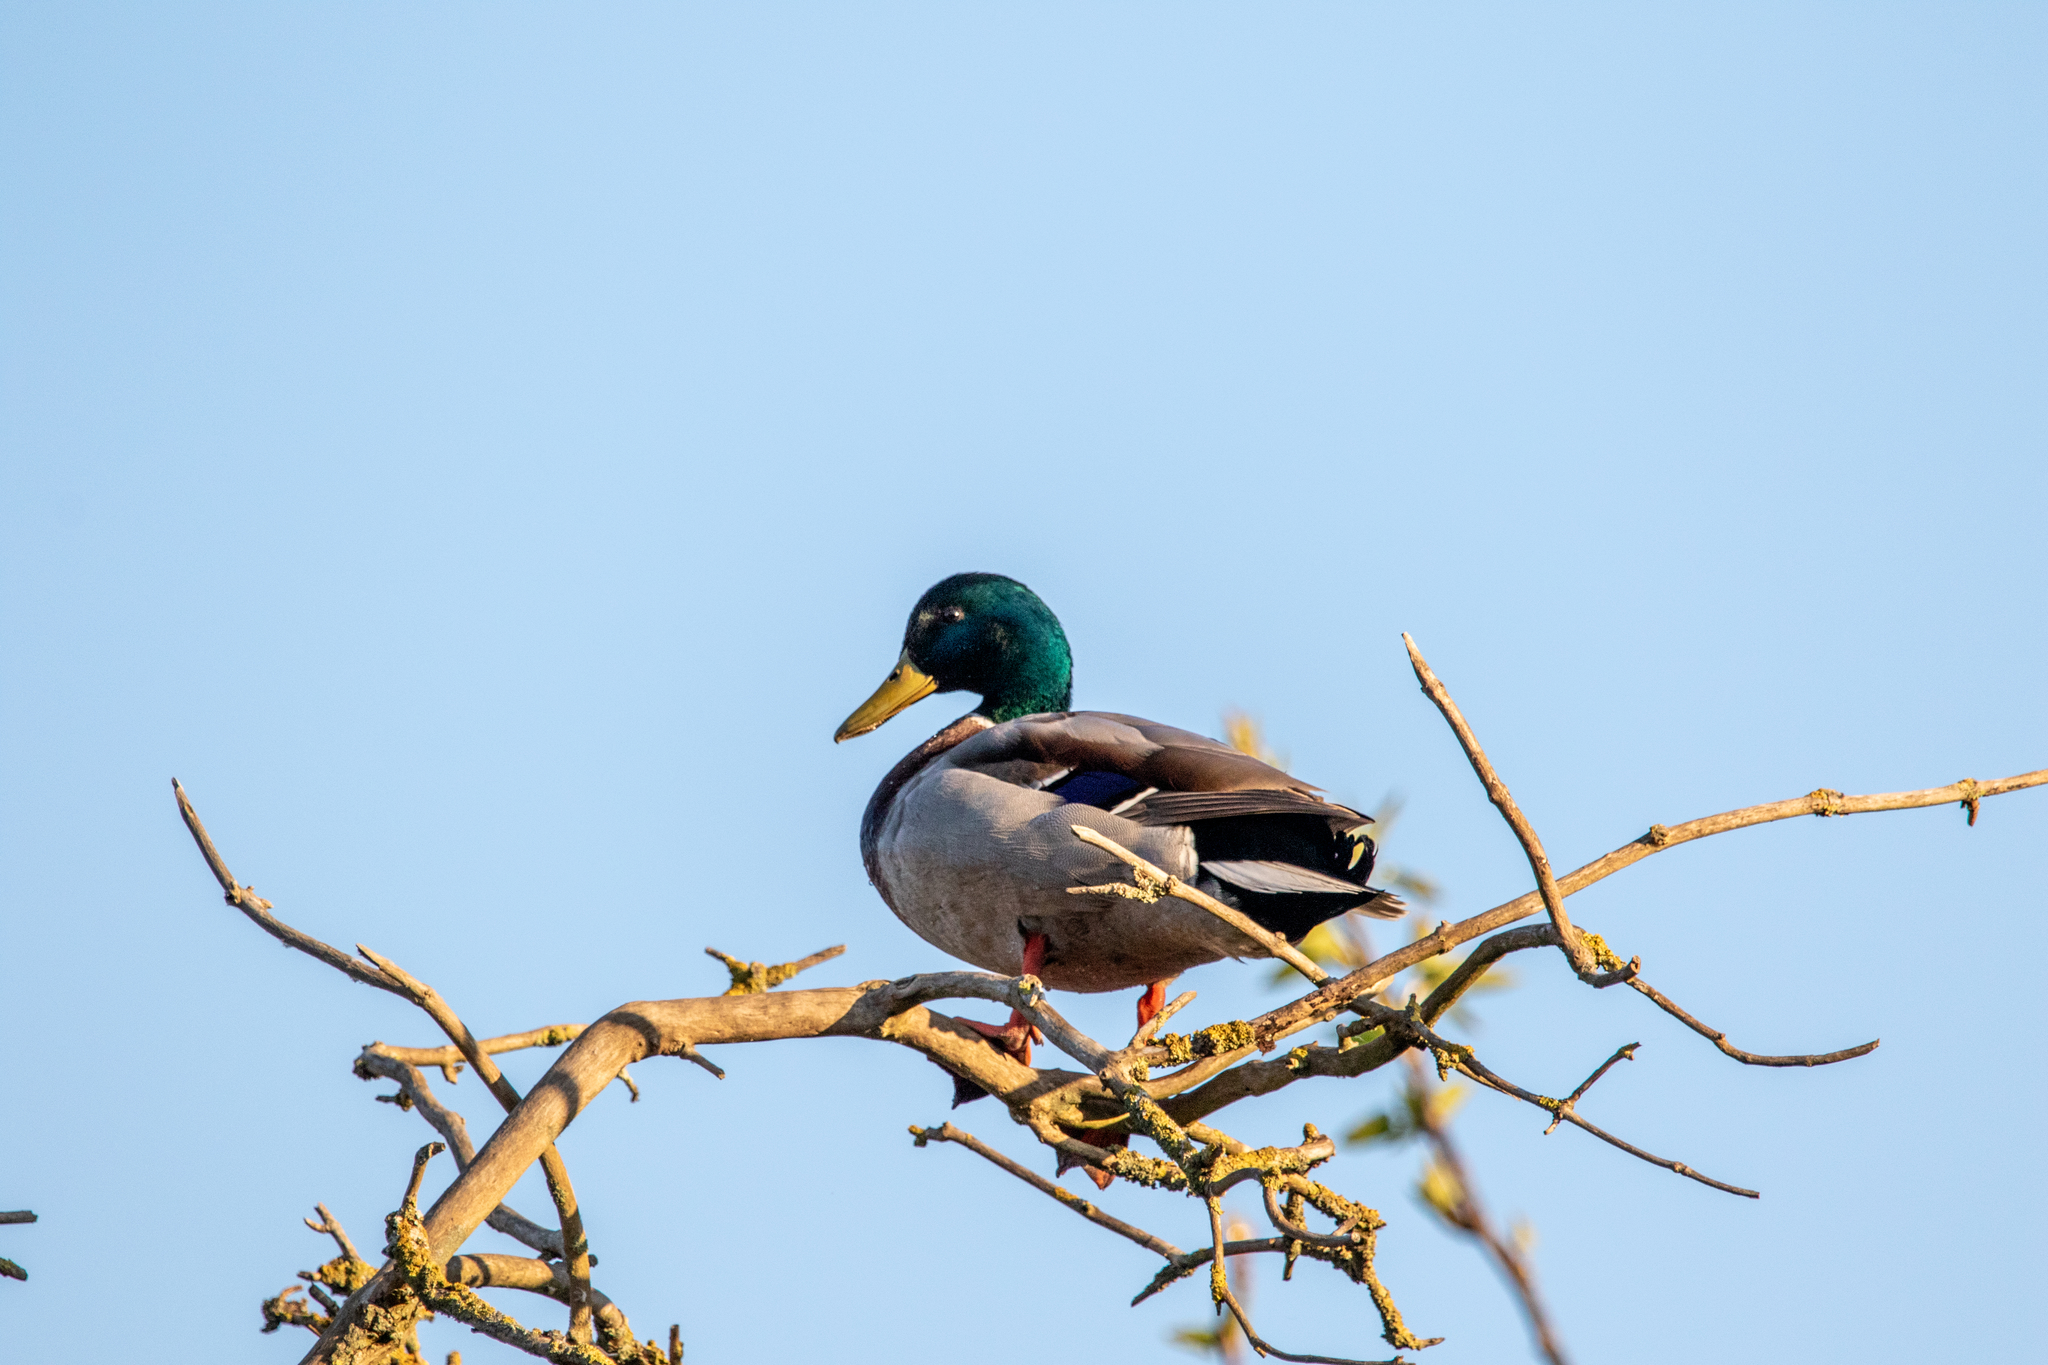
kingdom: Animalia
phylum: Chordata
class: Aves
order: Anseriformes
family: Anatidae
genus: Anas
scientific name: Anas platyrhynchos
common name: Mallard
